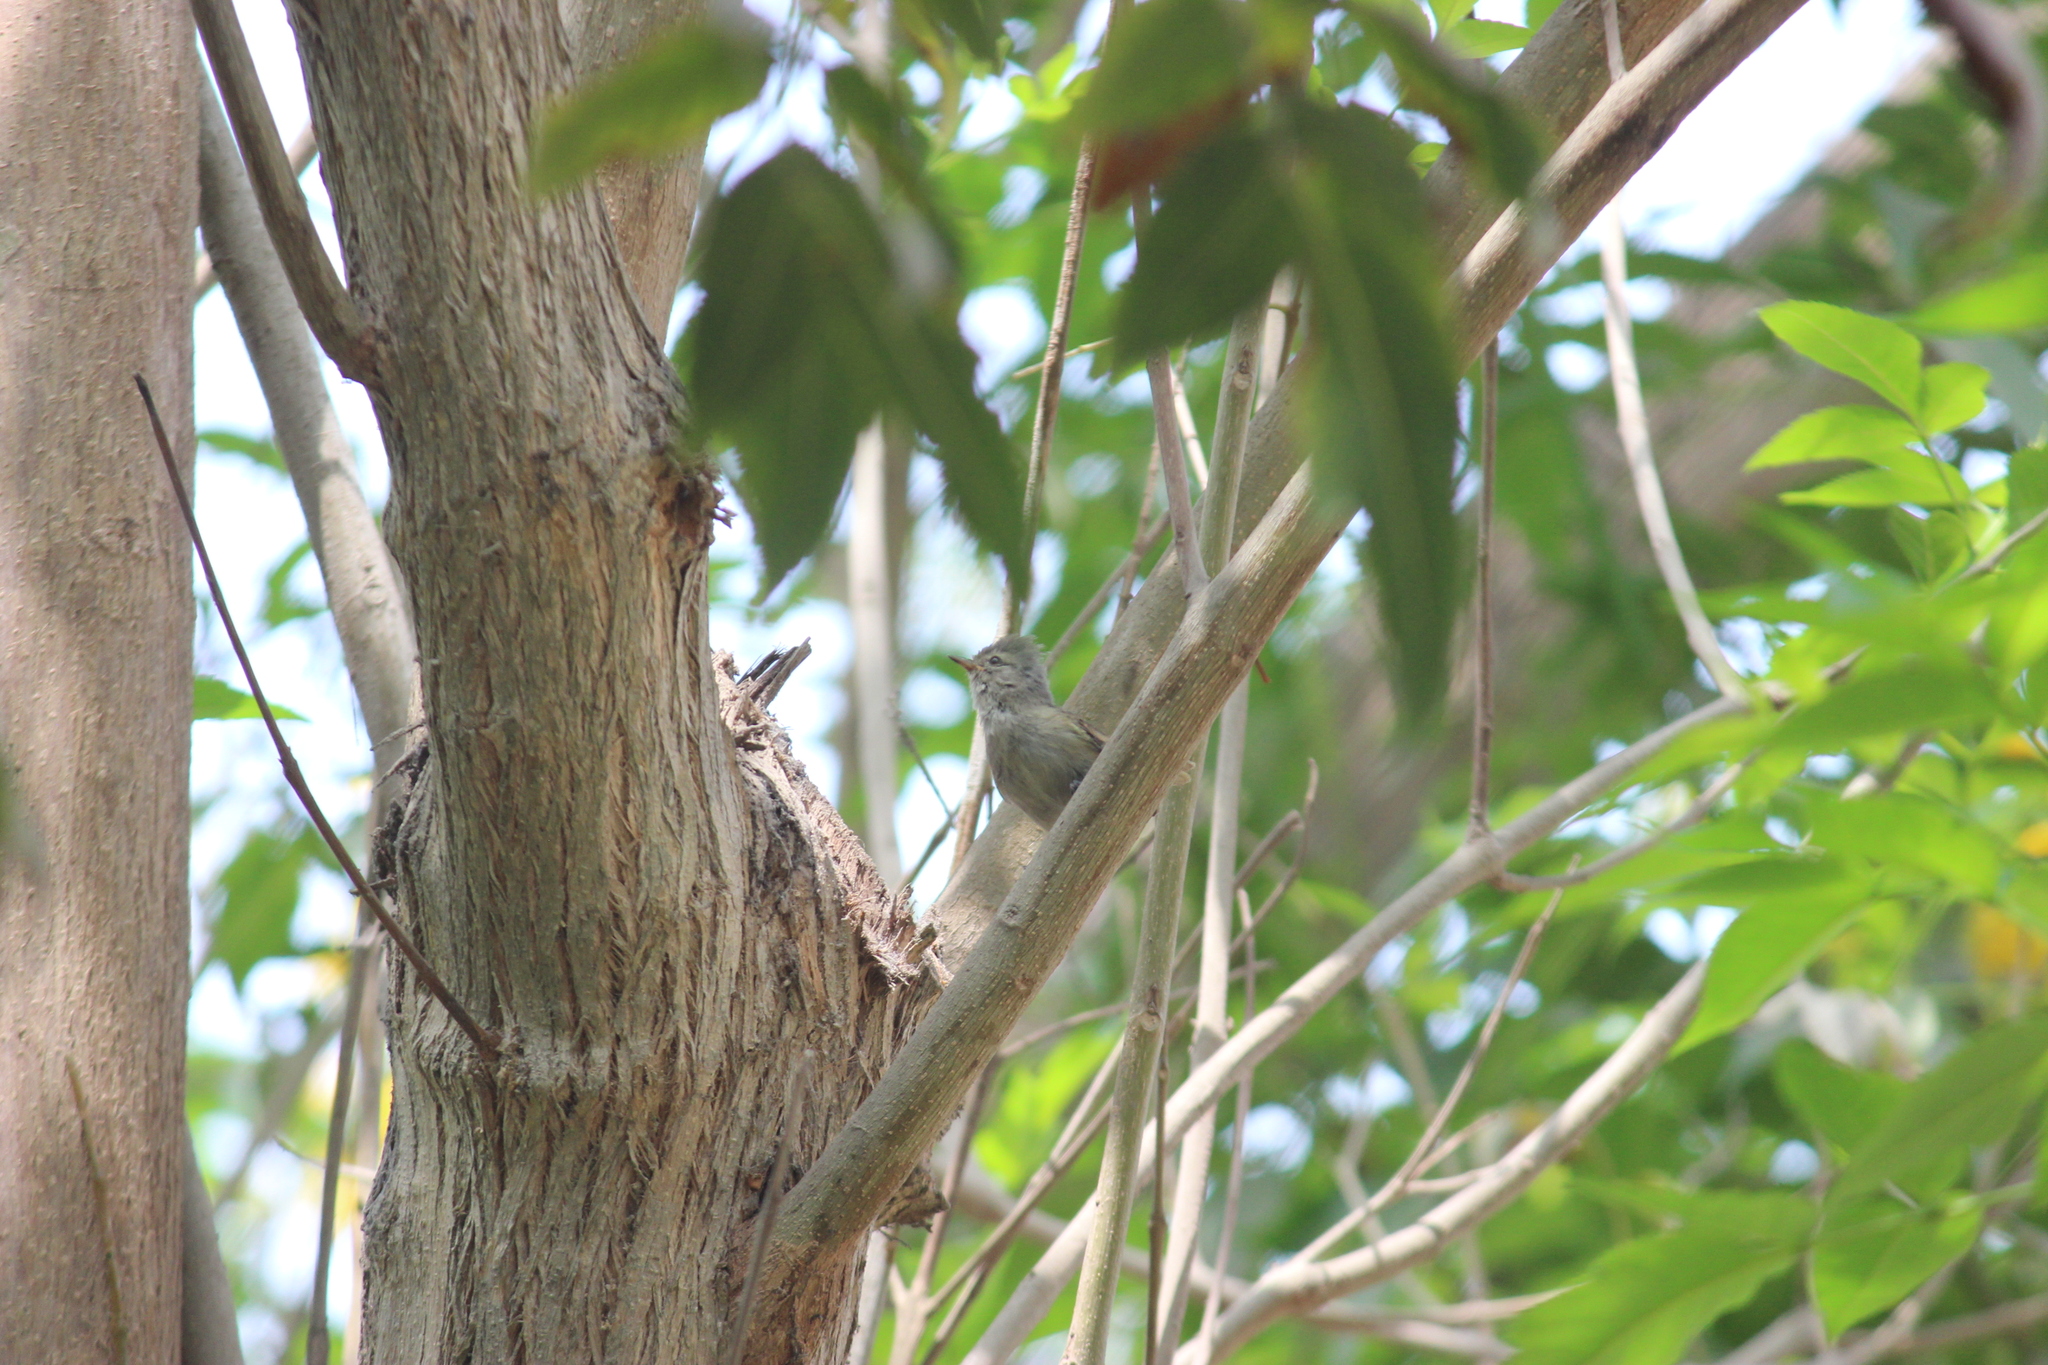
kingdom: Animalia
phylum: Chordata
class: Aves
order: Passeriformes
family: Tyrannidae
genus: Camptostoma
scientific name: Camptostoma obsoletum
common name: Southern beardless-tyrannulet
